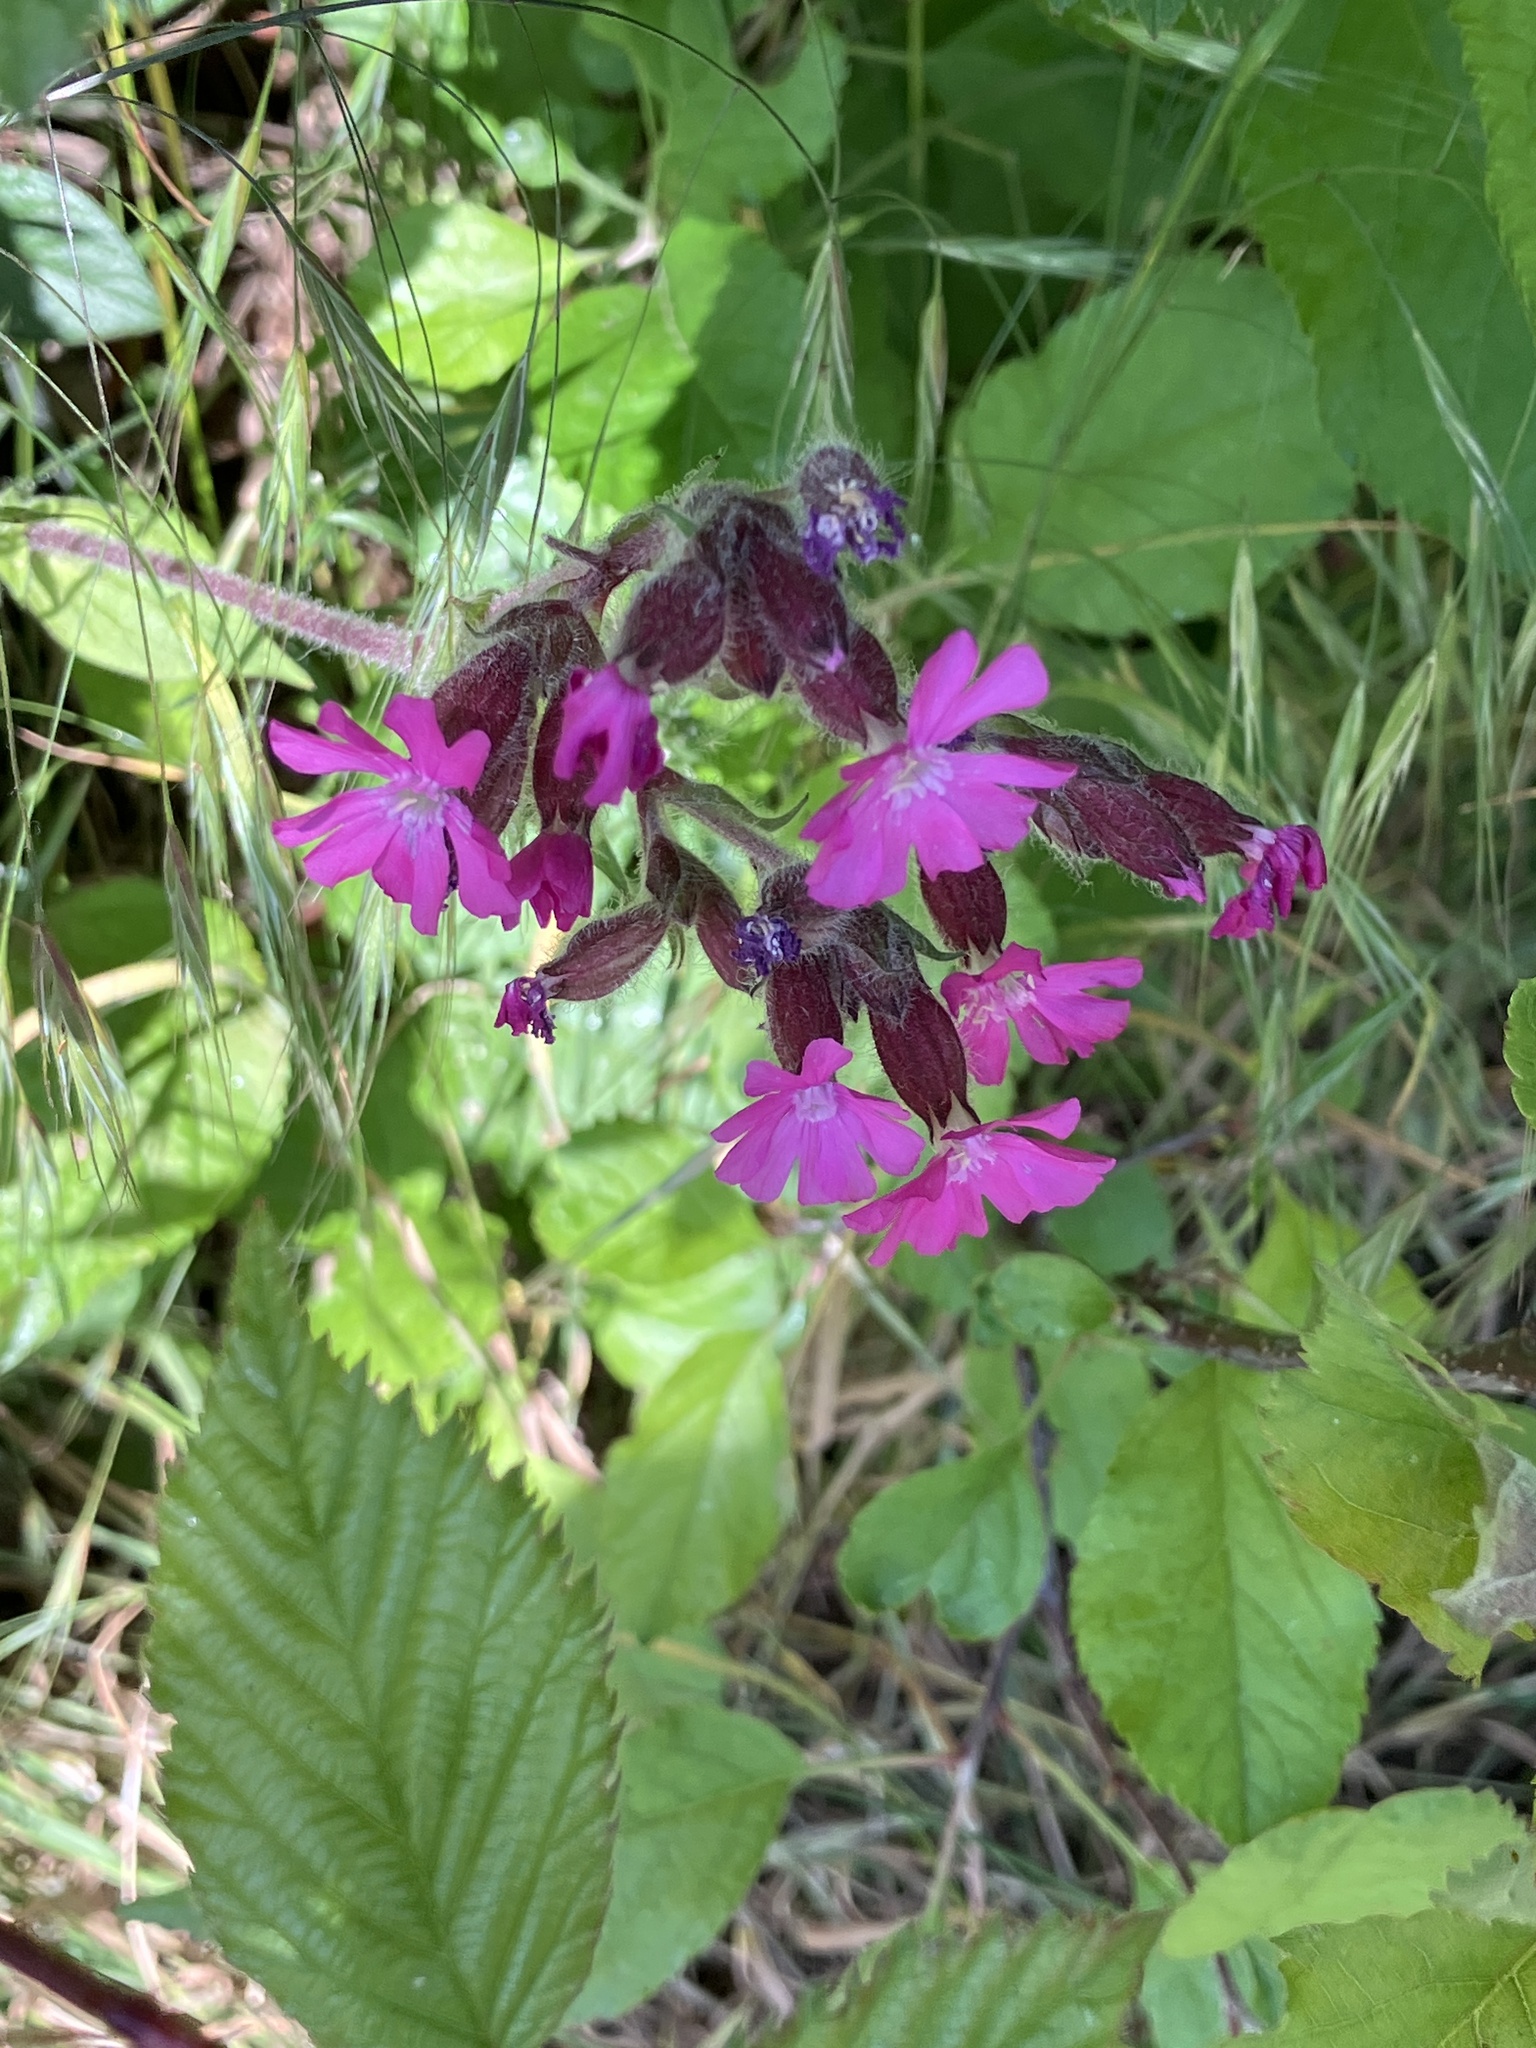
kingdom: Plantae
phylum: Tracheophyta
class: Magnoliopsida
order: Caryophyllales
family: Caryophyllaceae
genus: Silene
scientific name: Silene dioica
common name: Red campion
